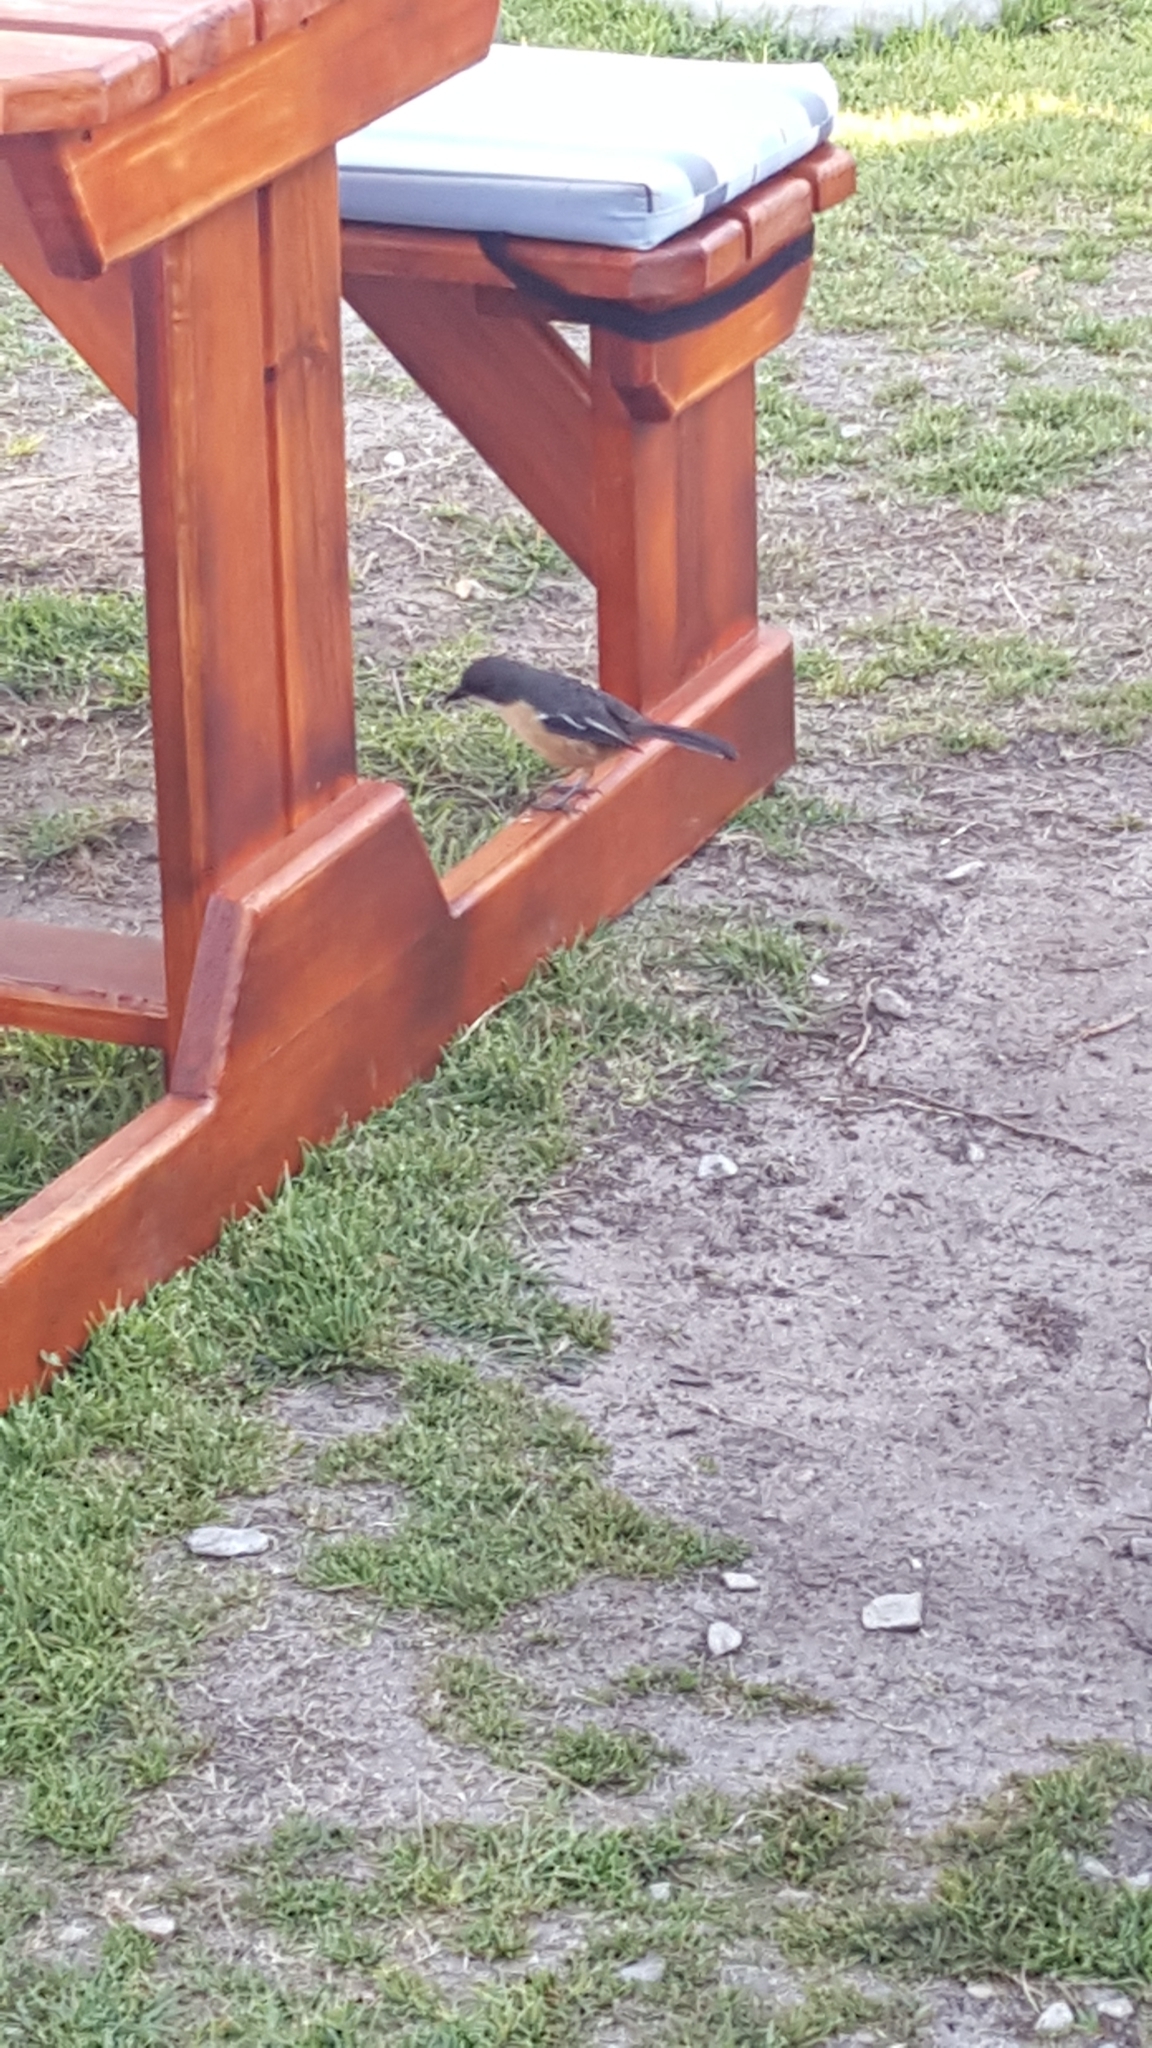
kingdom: Animalia
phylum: Chordata
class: Aves
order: Passeriformes
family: Malaconotidae
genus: Laniarius
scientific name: Laniarius ferrugineus
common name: Southern boubou
